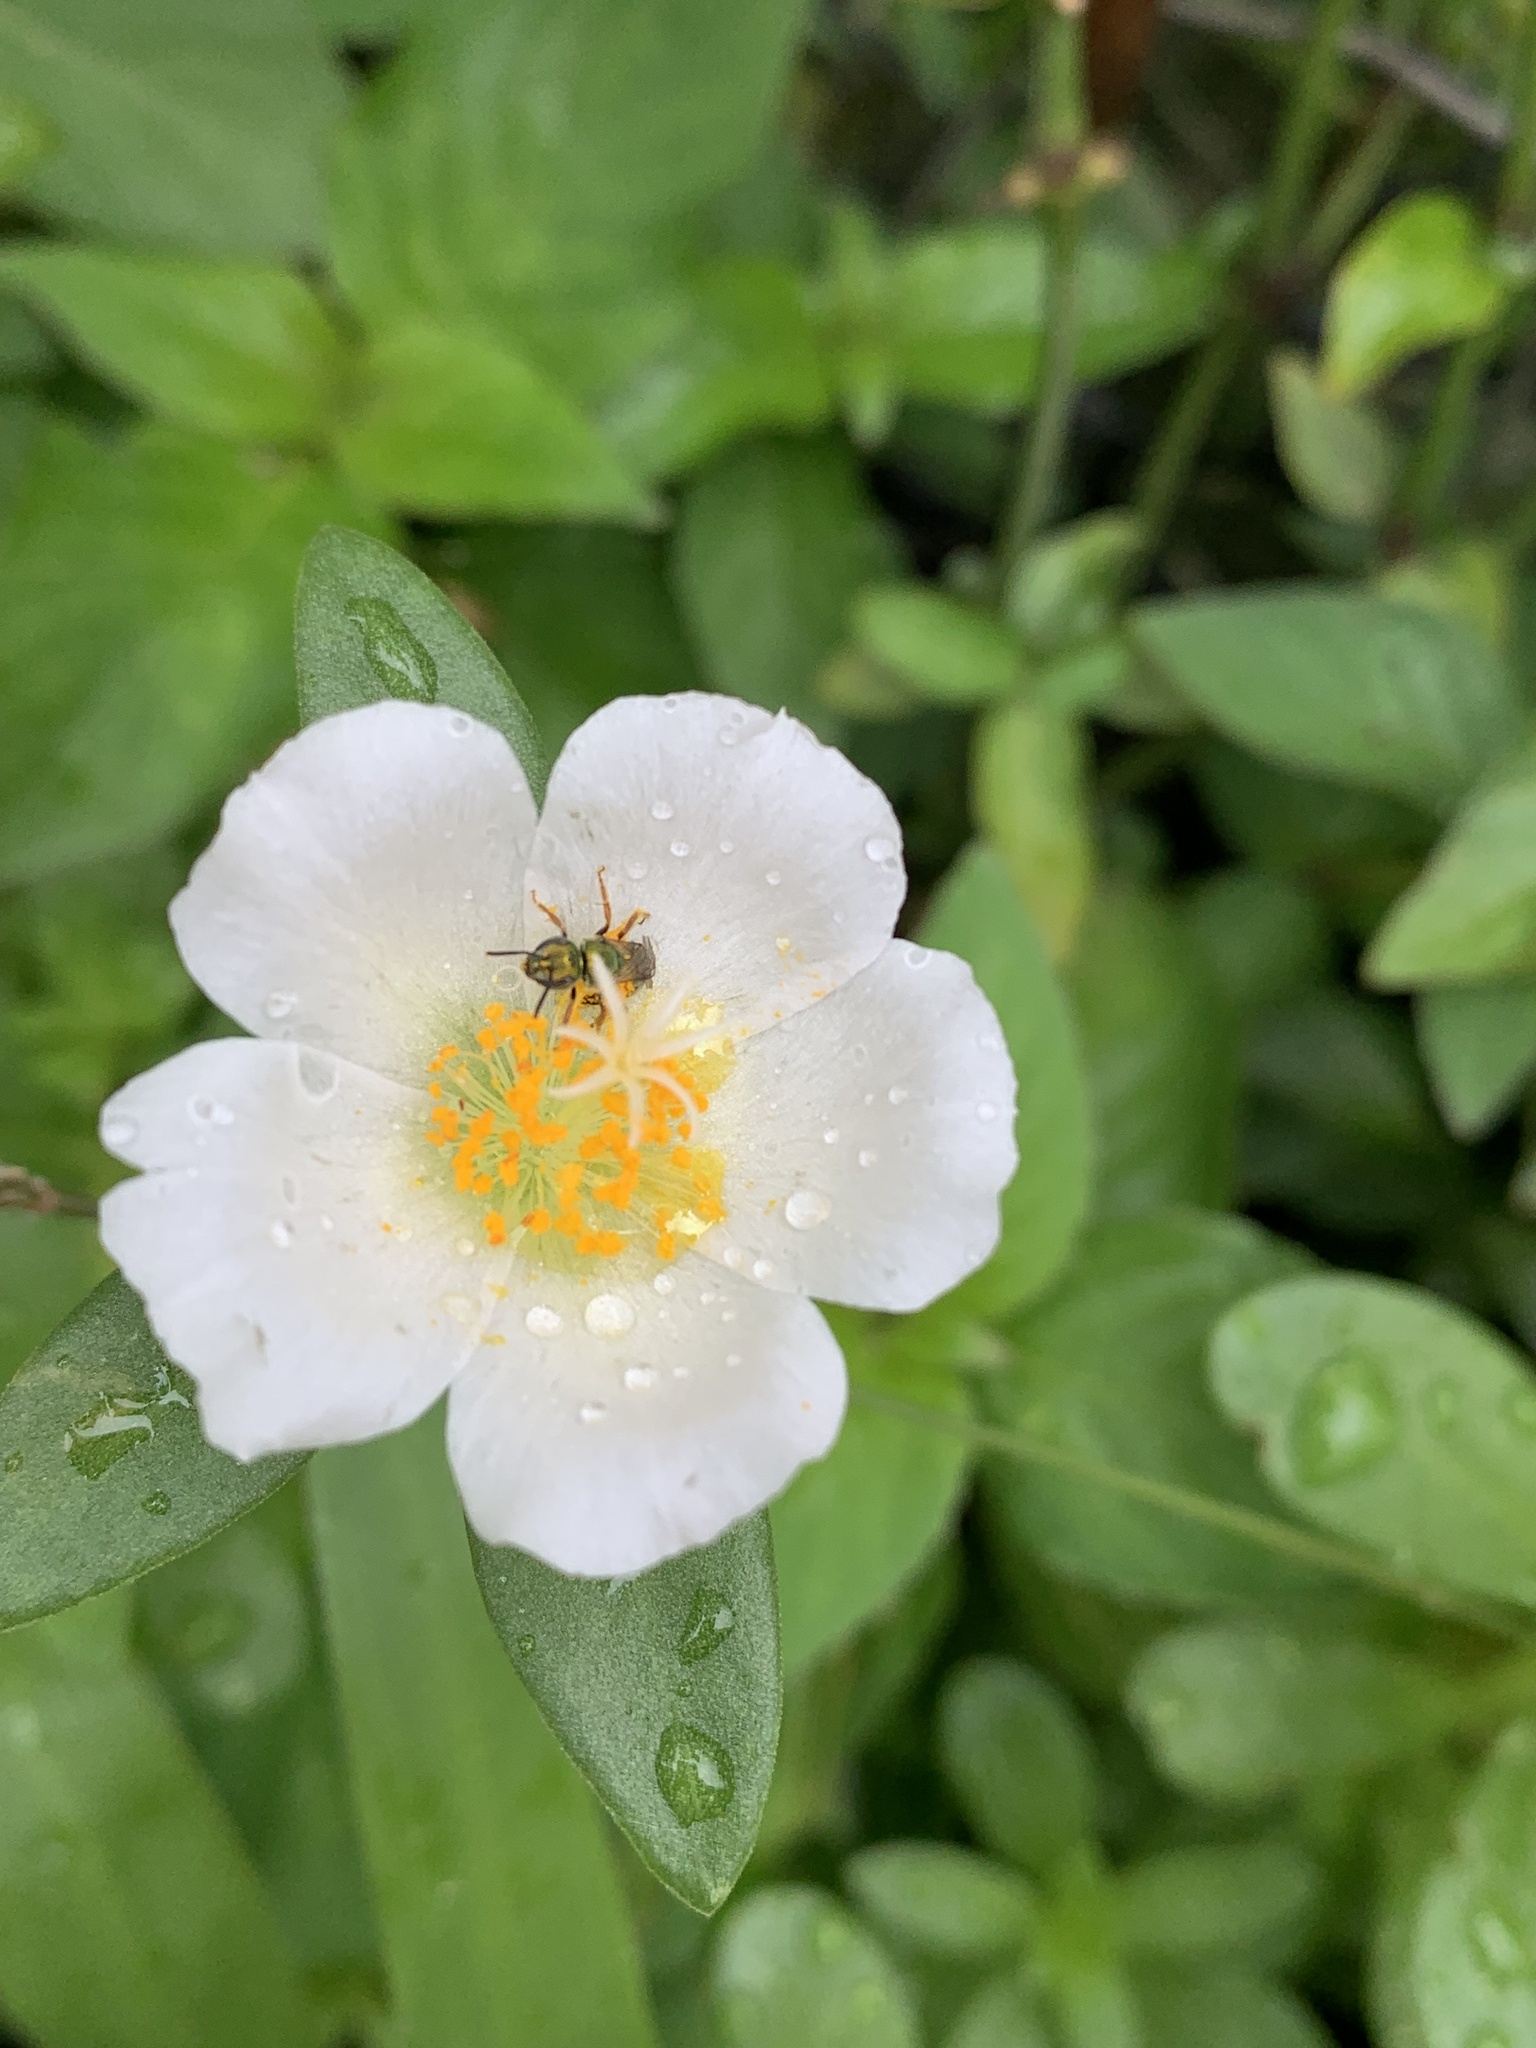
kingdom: Animalia
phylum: Arthropoda
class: Insecta
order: Hymenoptera
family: Halictidae
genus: Augochlora
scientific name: Augochlora aurifera
